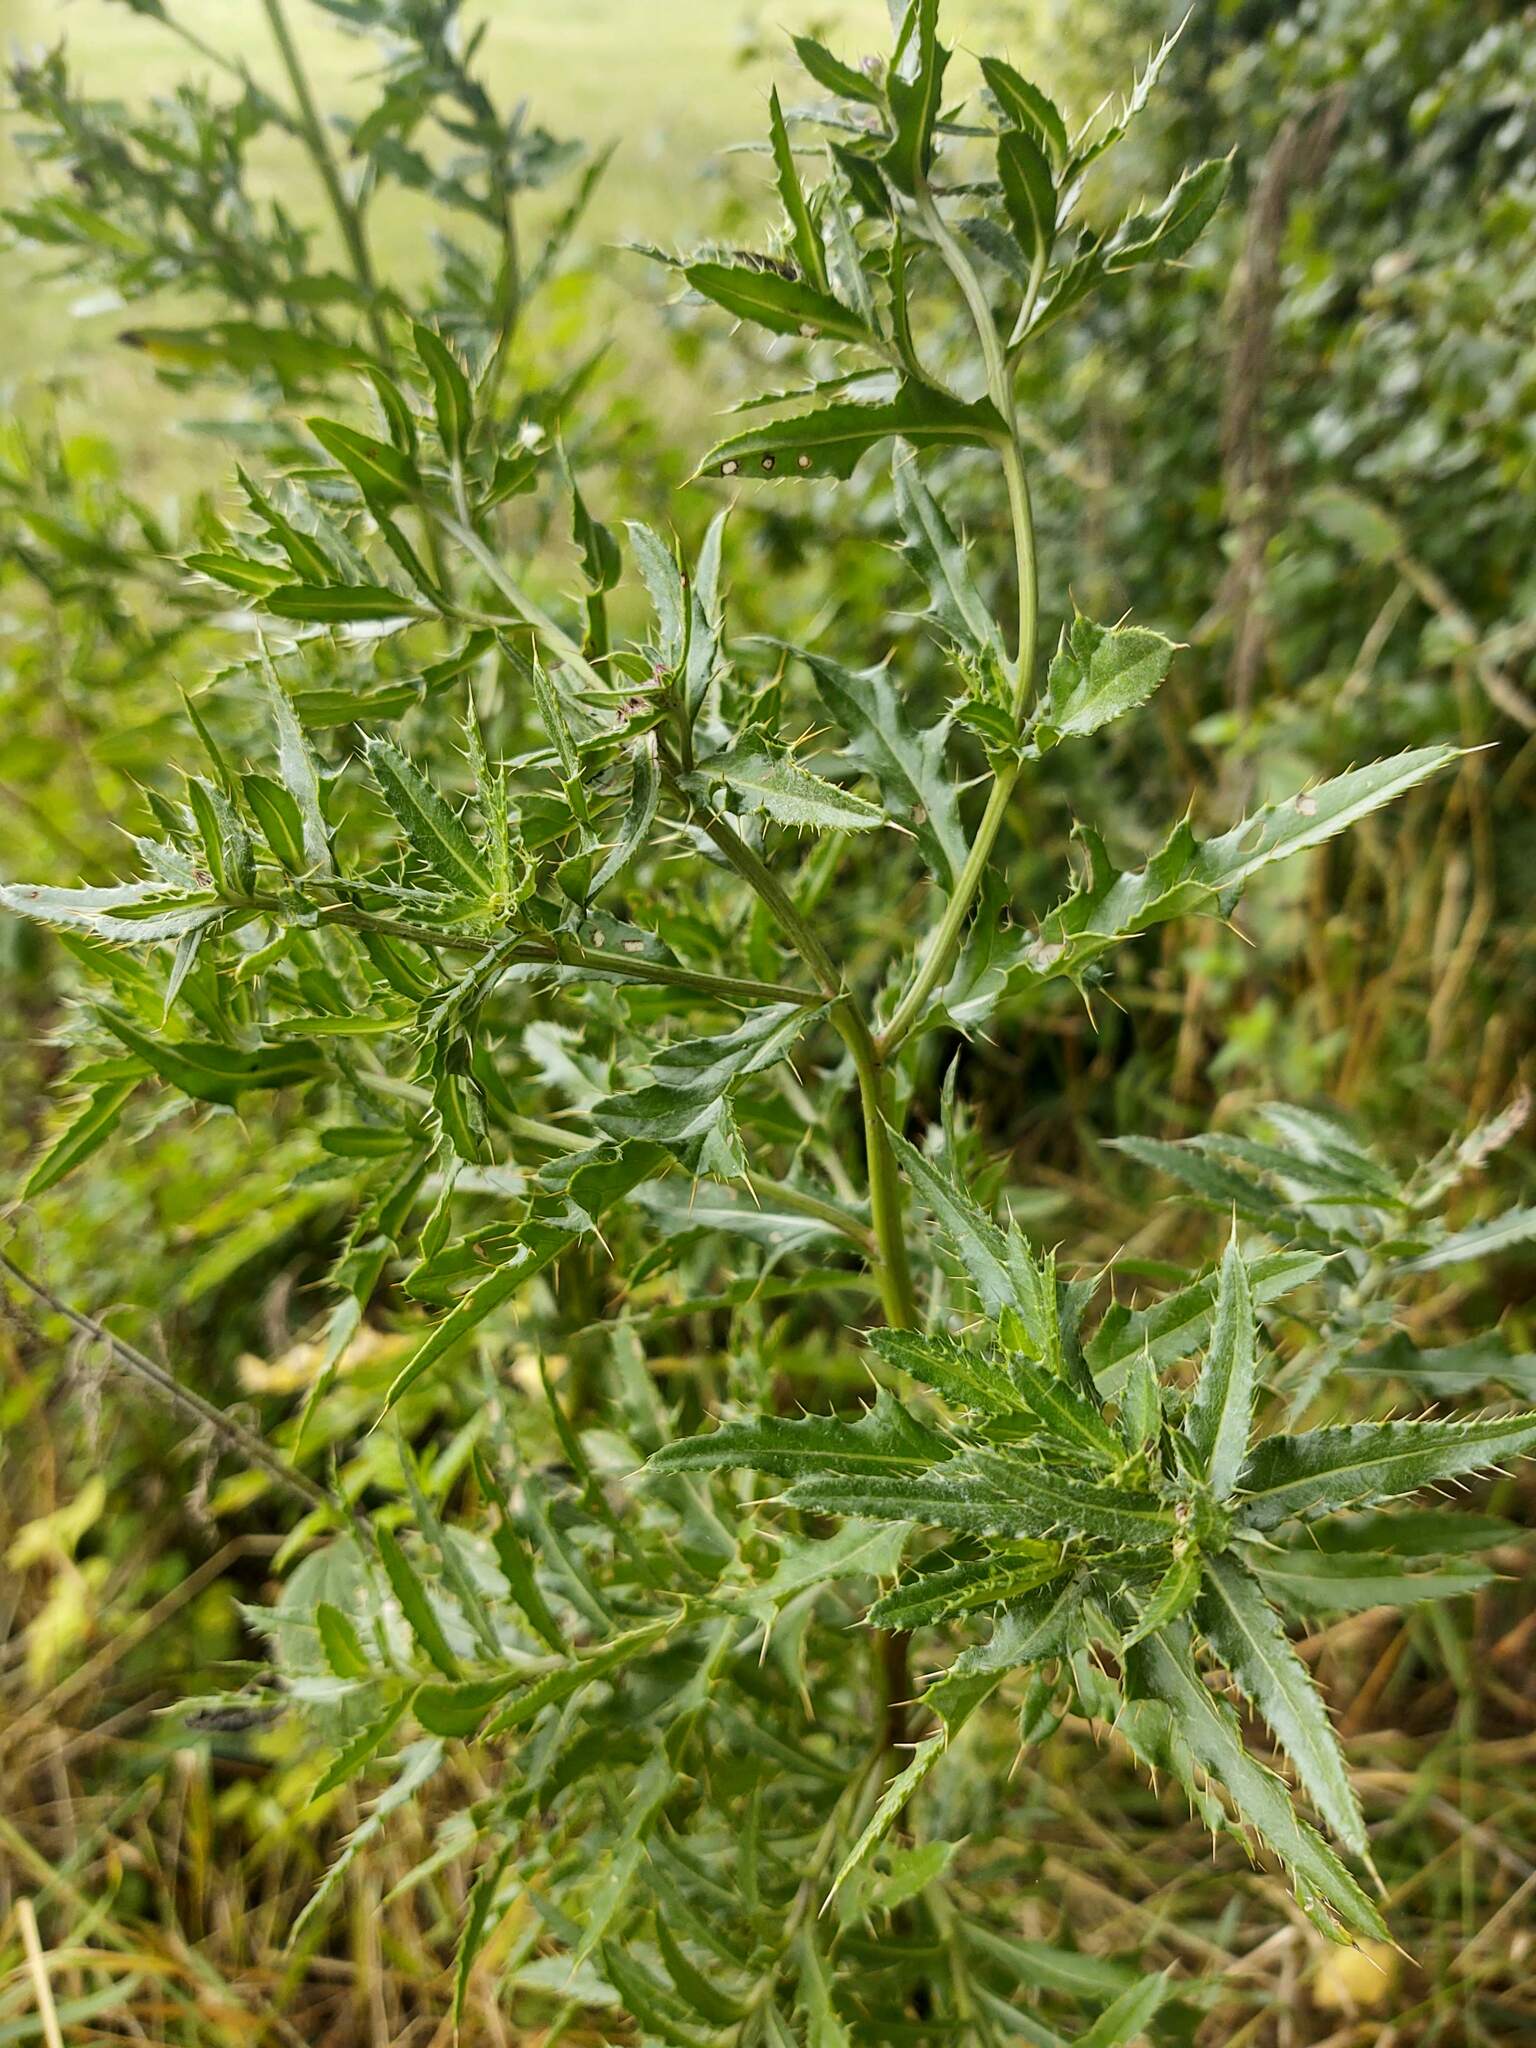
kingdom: Plantae
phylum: Tracheophyta
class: Magnoliopsida
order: Asterales
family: Asteraceae
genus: Cirsium
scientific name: Cirsium arvense
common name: Creeping thistle
